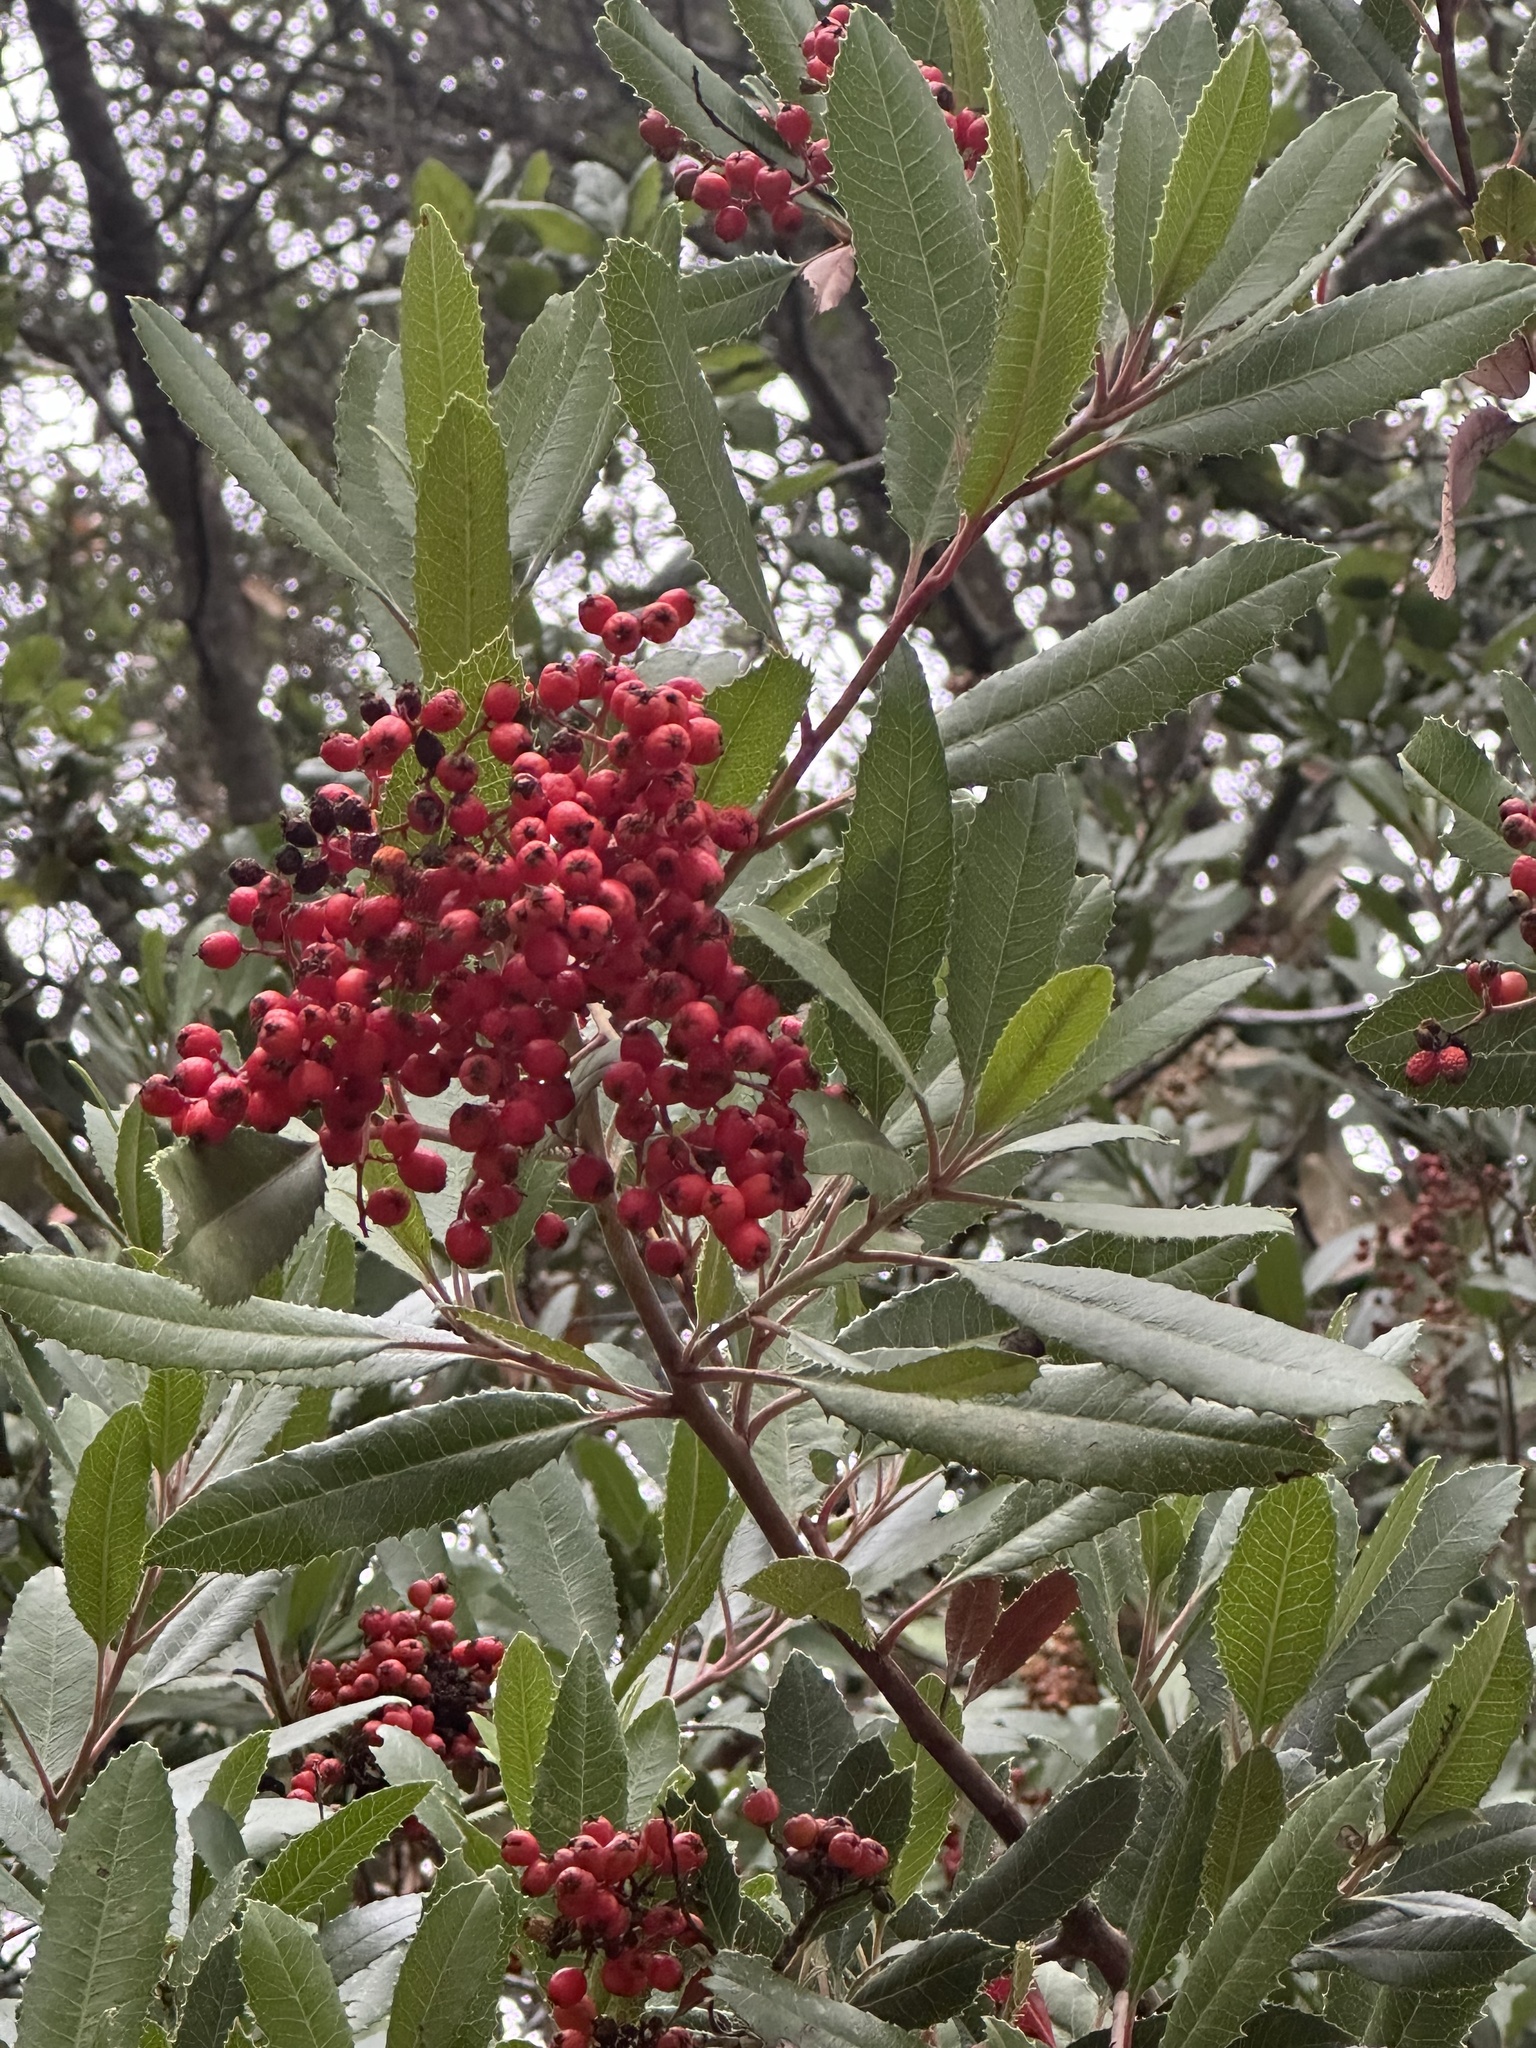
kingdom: Plantae
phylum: Tracheophyta
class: Magnoliopsida
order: Rosales
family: Rosaceae
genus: Heteromeles
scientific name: Heteromeles arbutifolia
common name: California-holly
